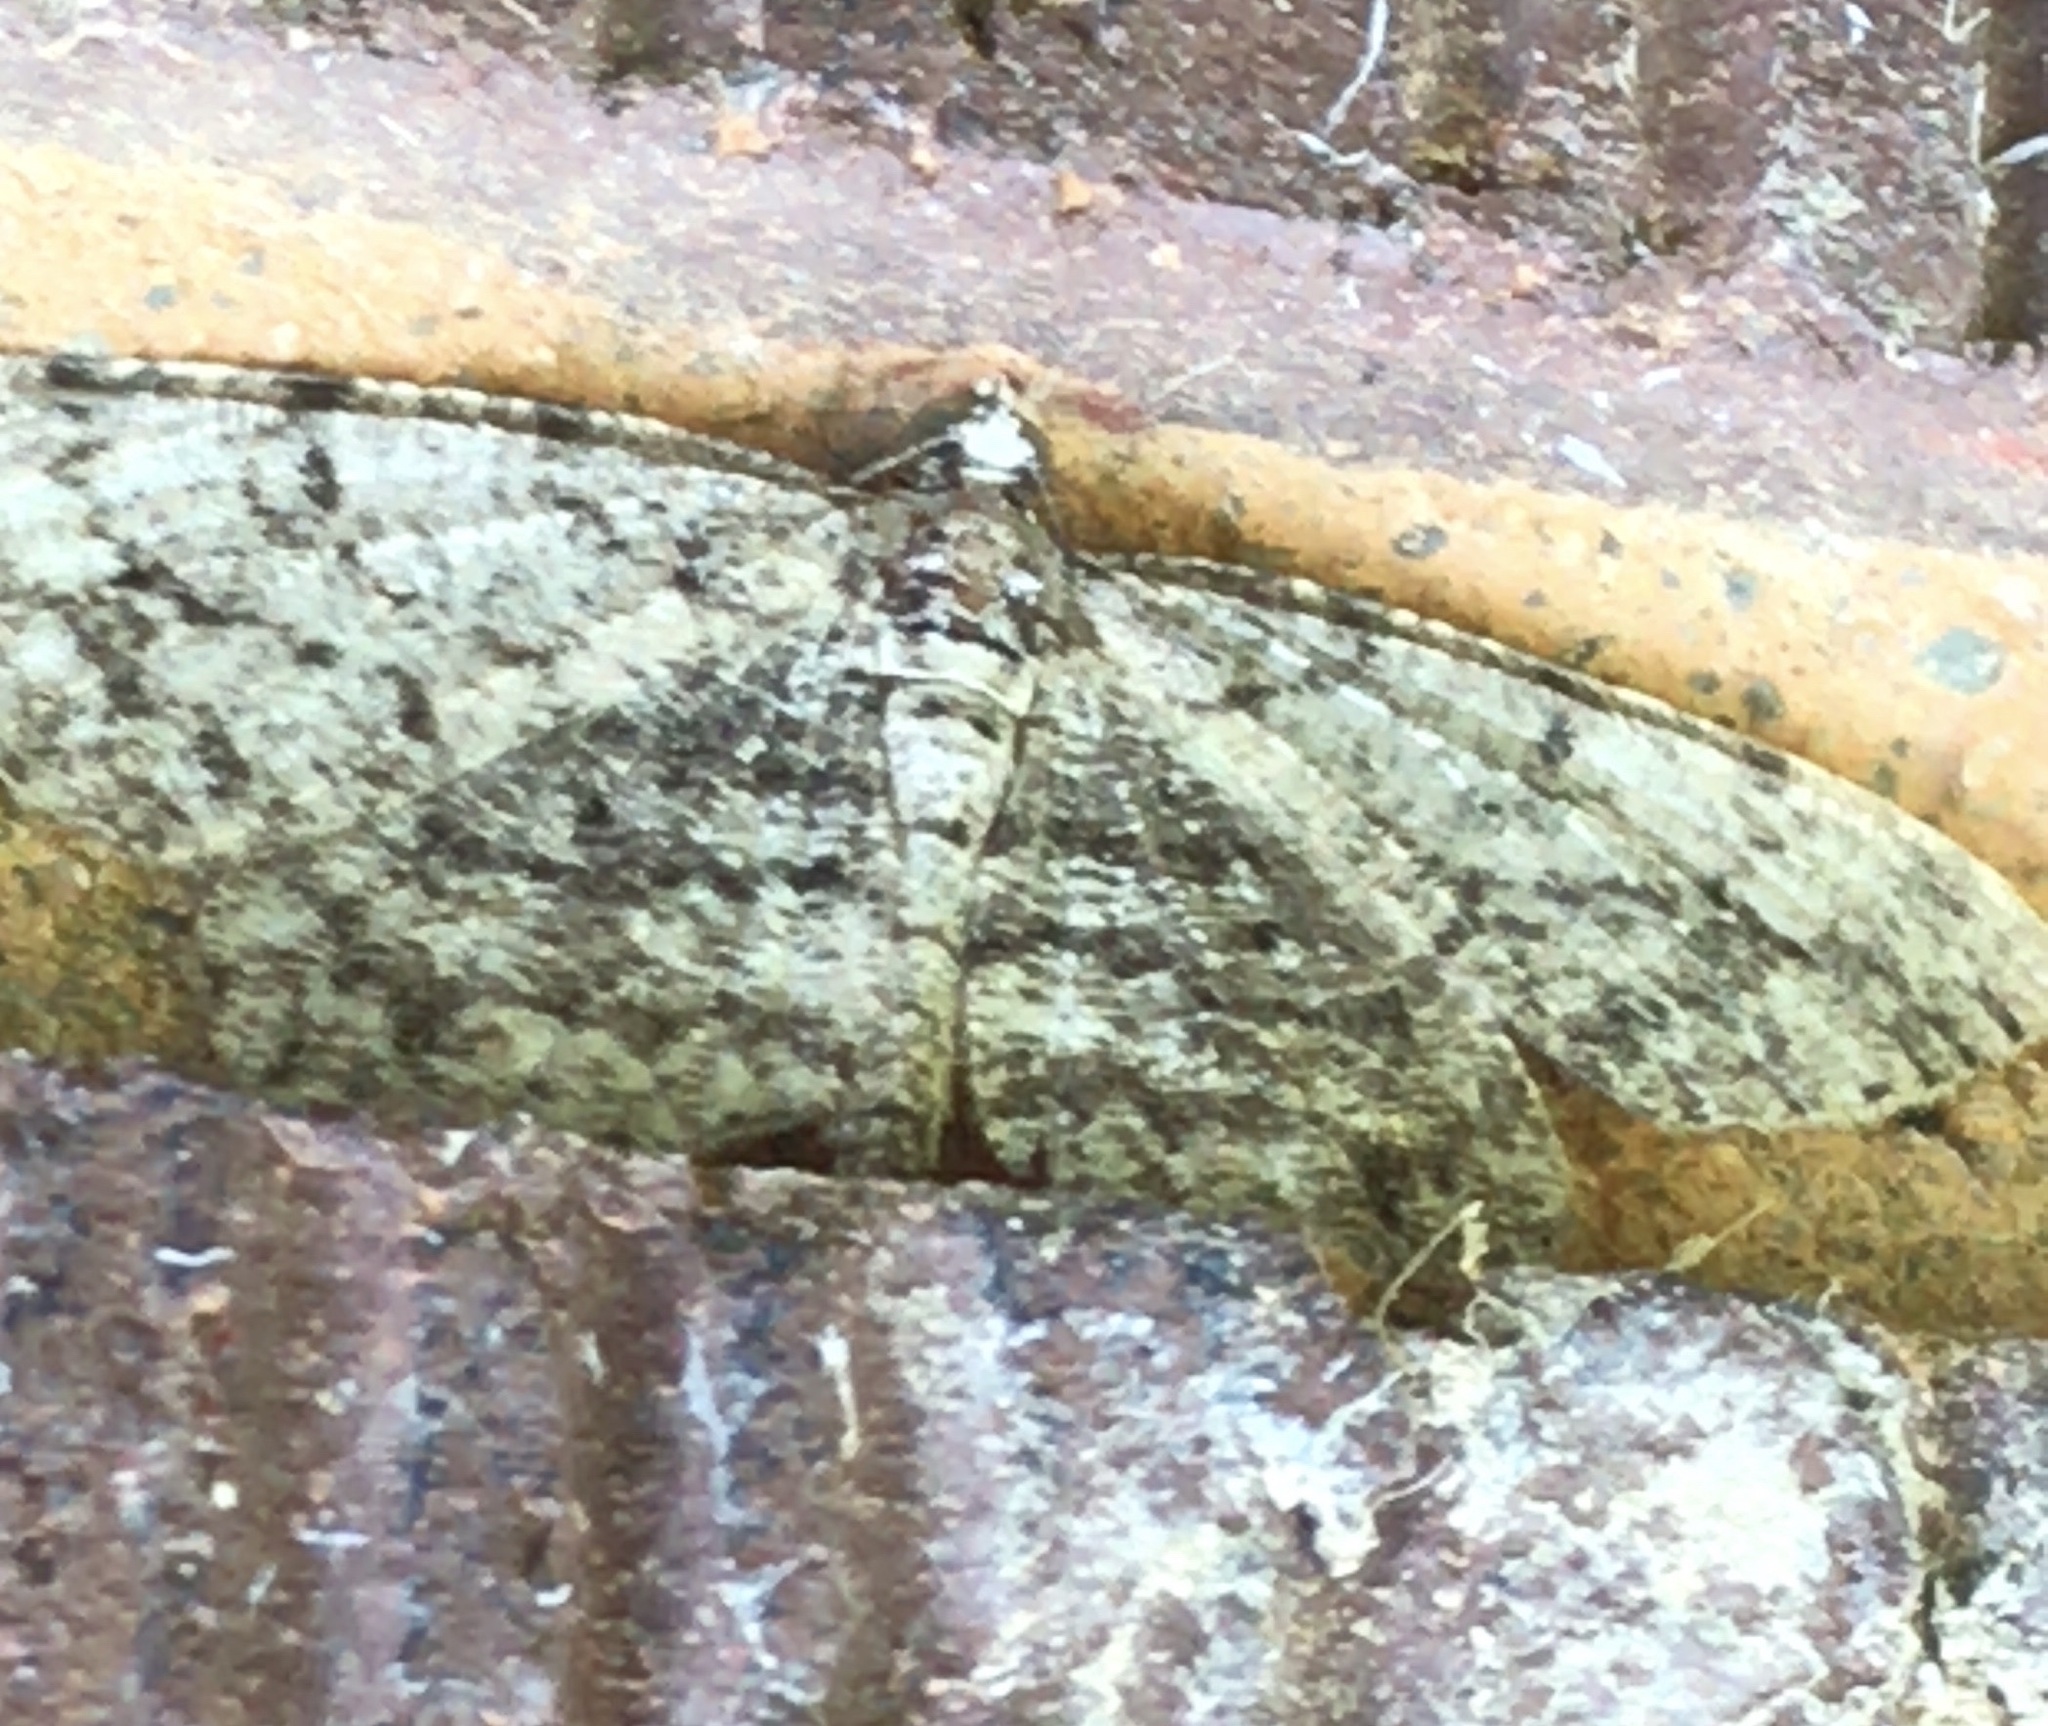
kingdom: Animalia
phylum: Arthropoda
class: Insecta
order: Lepidoptera
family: Geometridae
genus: Protoboarmia
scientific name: Protoboarmia porcelaria
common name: Porcelain gray
